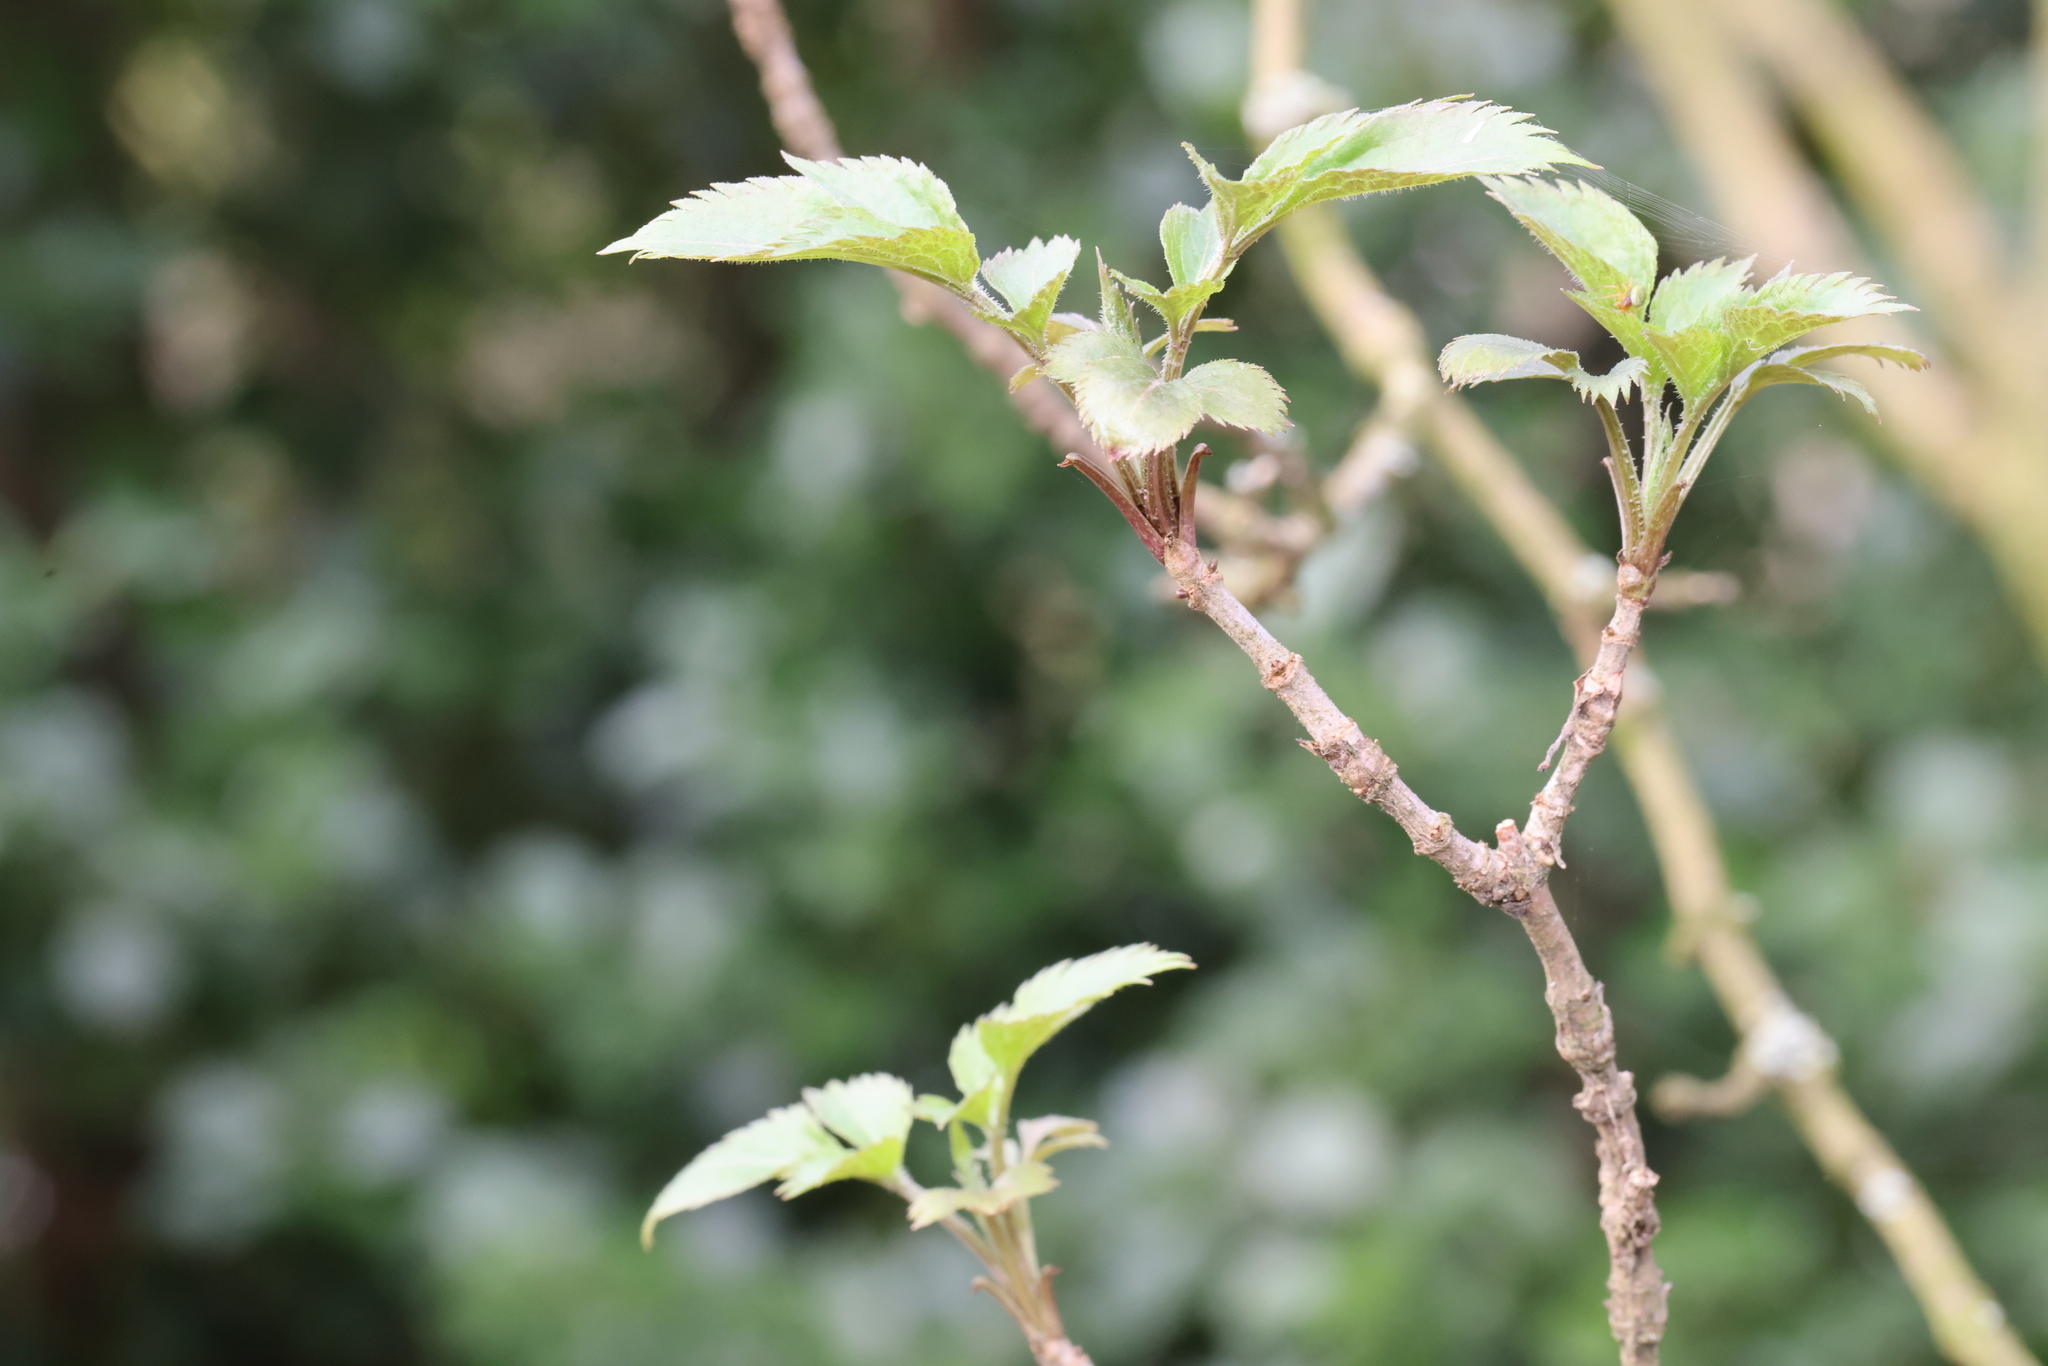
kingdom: Plantae
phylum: Tracheophyta
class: Magnoliopsida
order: Dipsacales
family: Viburnaceae
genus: Sambucus
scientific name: Sambucus nigra
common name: Elder
